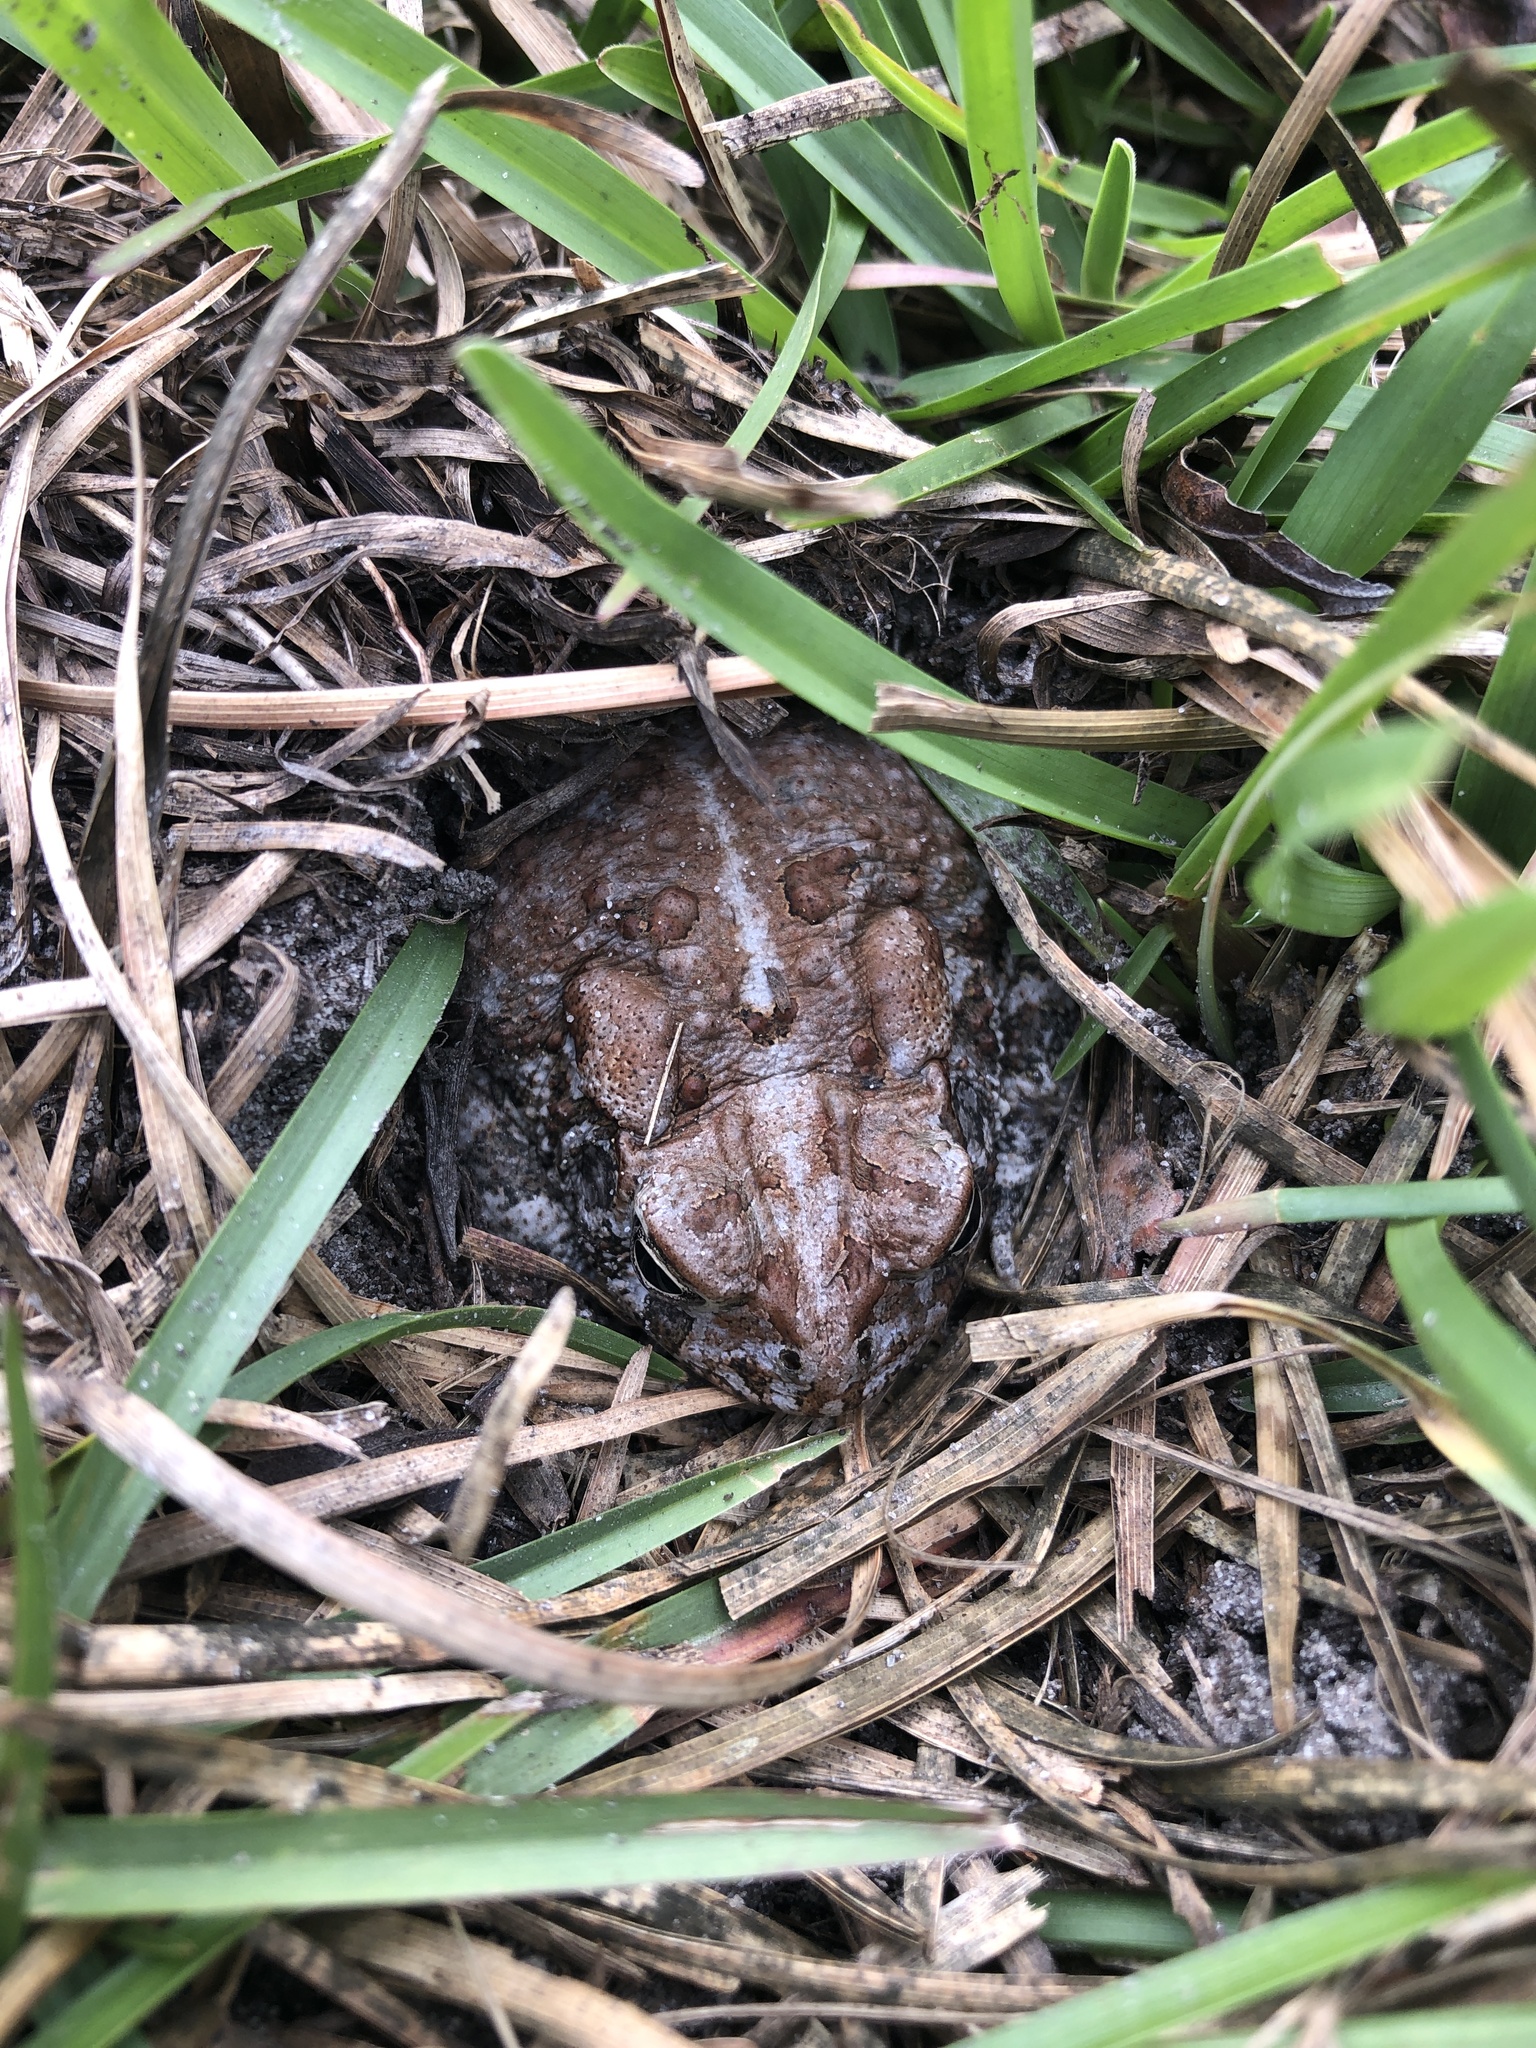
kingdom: Animalia
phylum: Chordata
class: Amphibia
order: Anura
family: Bufonidae
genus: Anaxyrus
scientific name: Anaxyrus terrestris
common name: Southern toad
